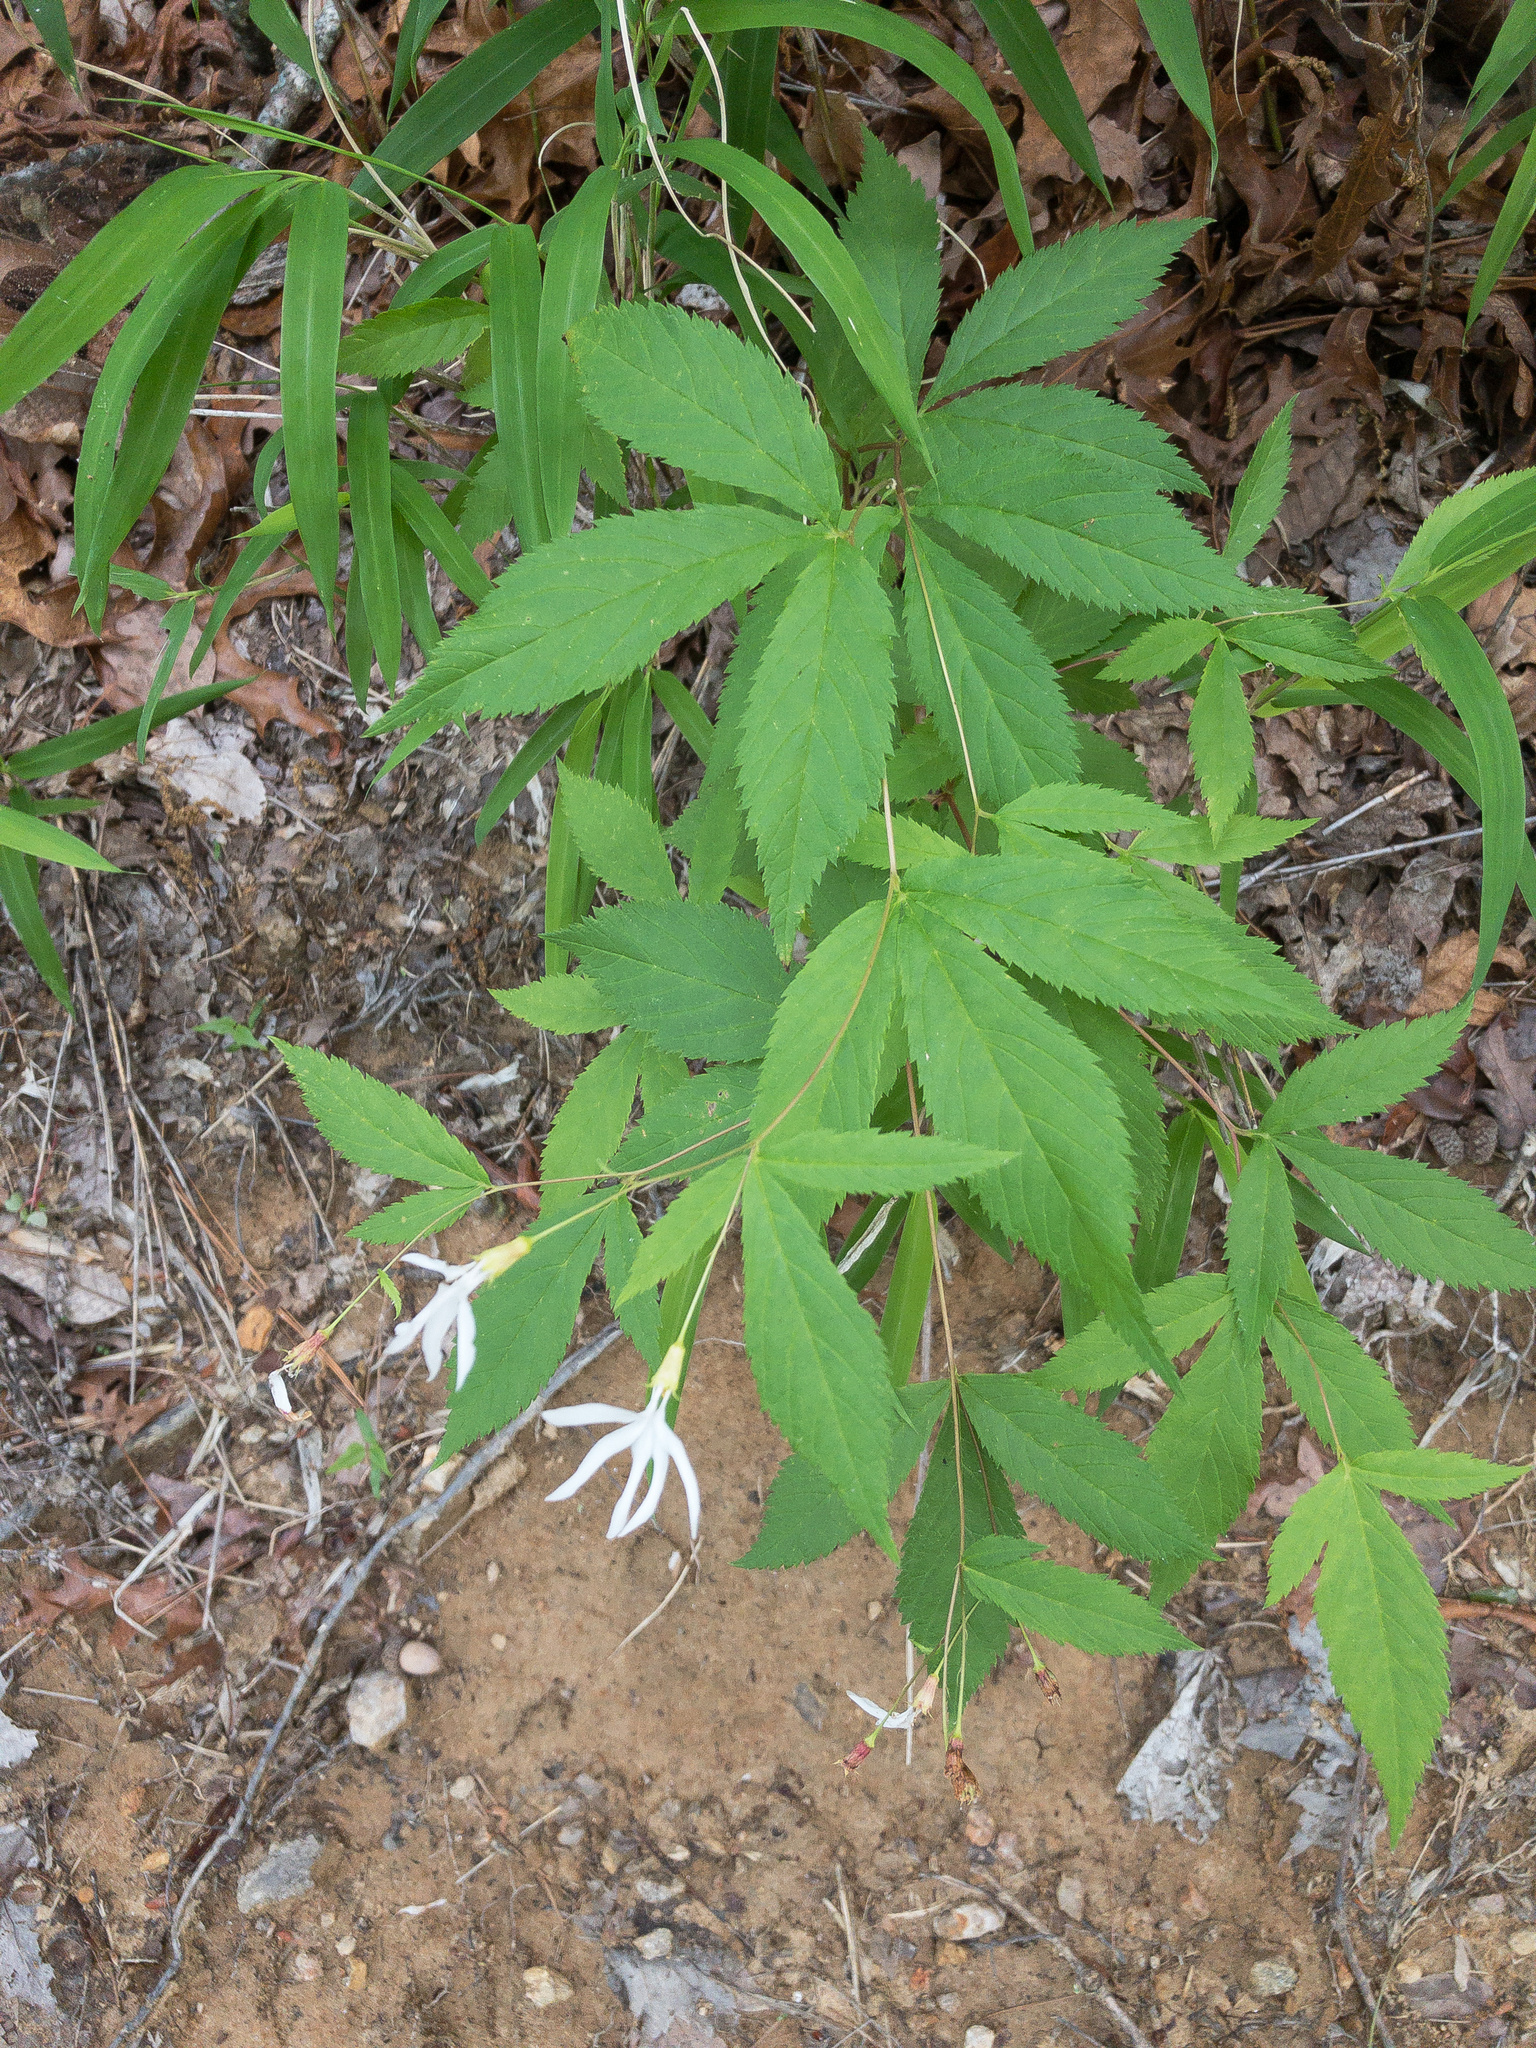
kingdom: Plantae
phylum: Tracheophyta
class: Magnoliopsida
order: Rosales
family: Rosaceae
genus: Gillenia
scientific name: Gillenia trifoliata
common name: Bowman's-root
